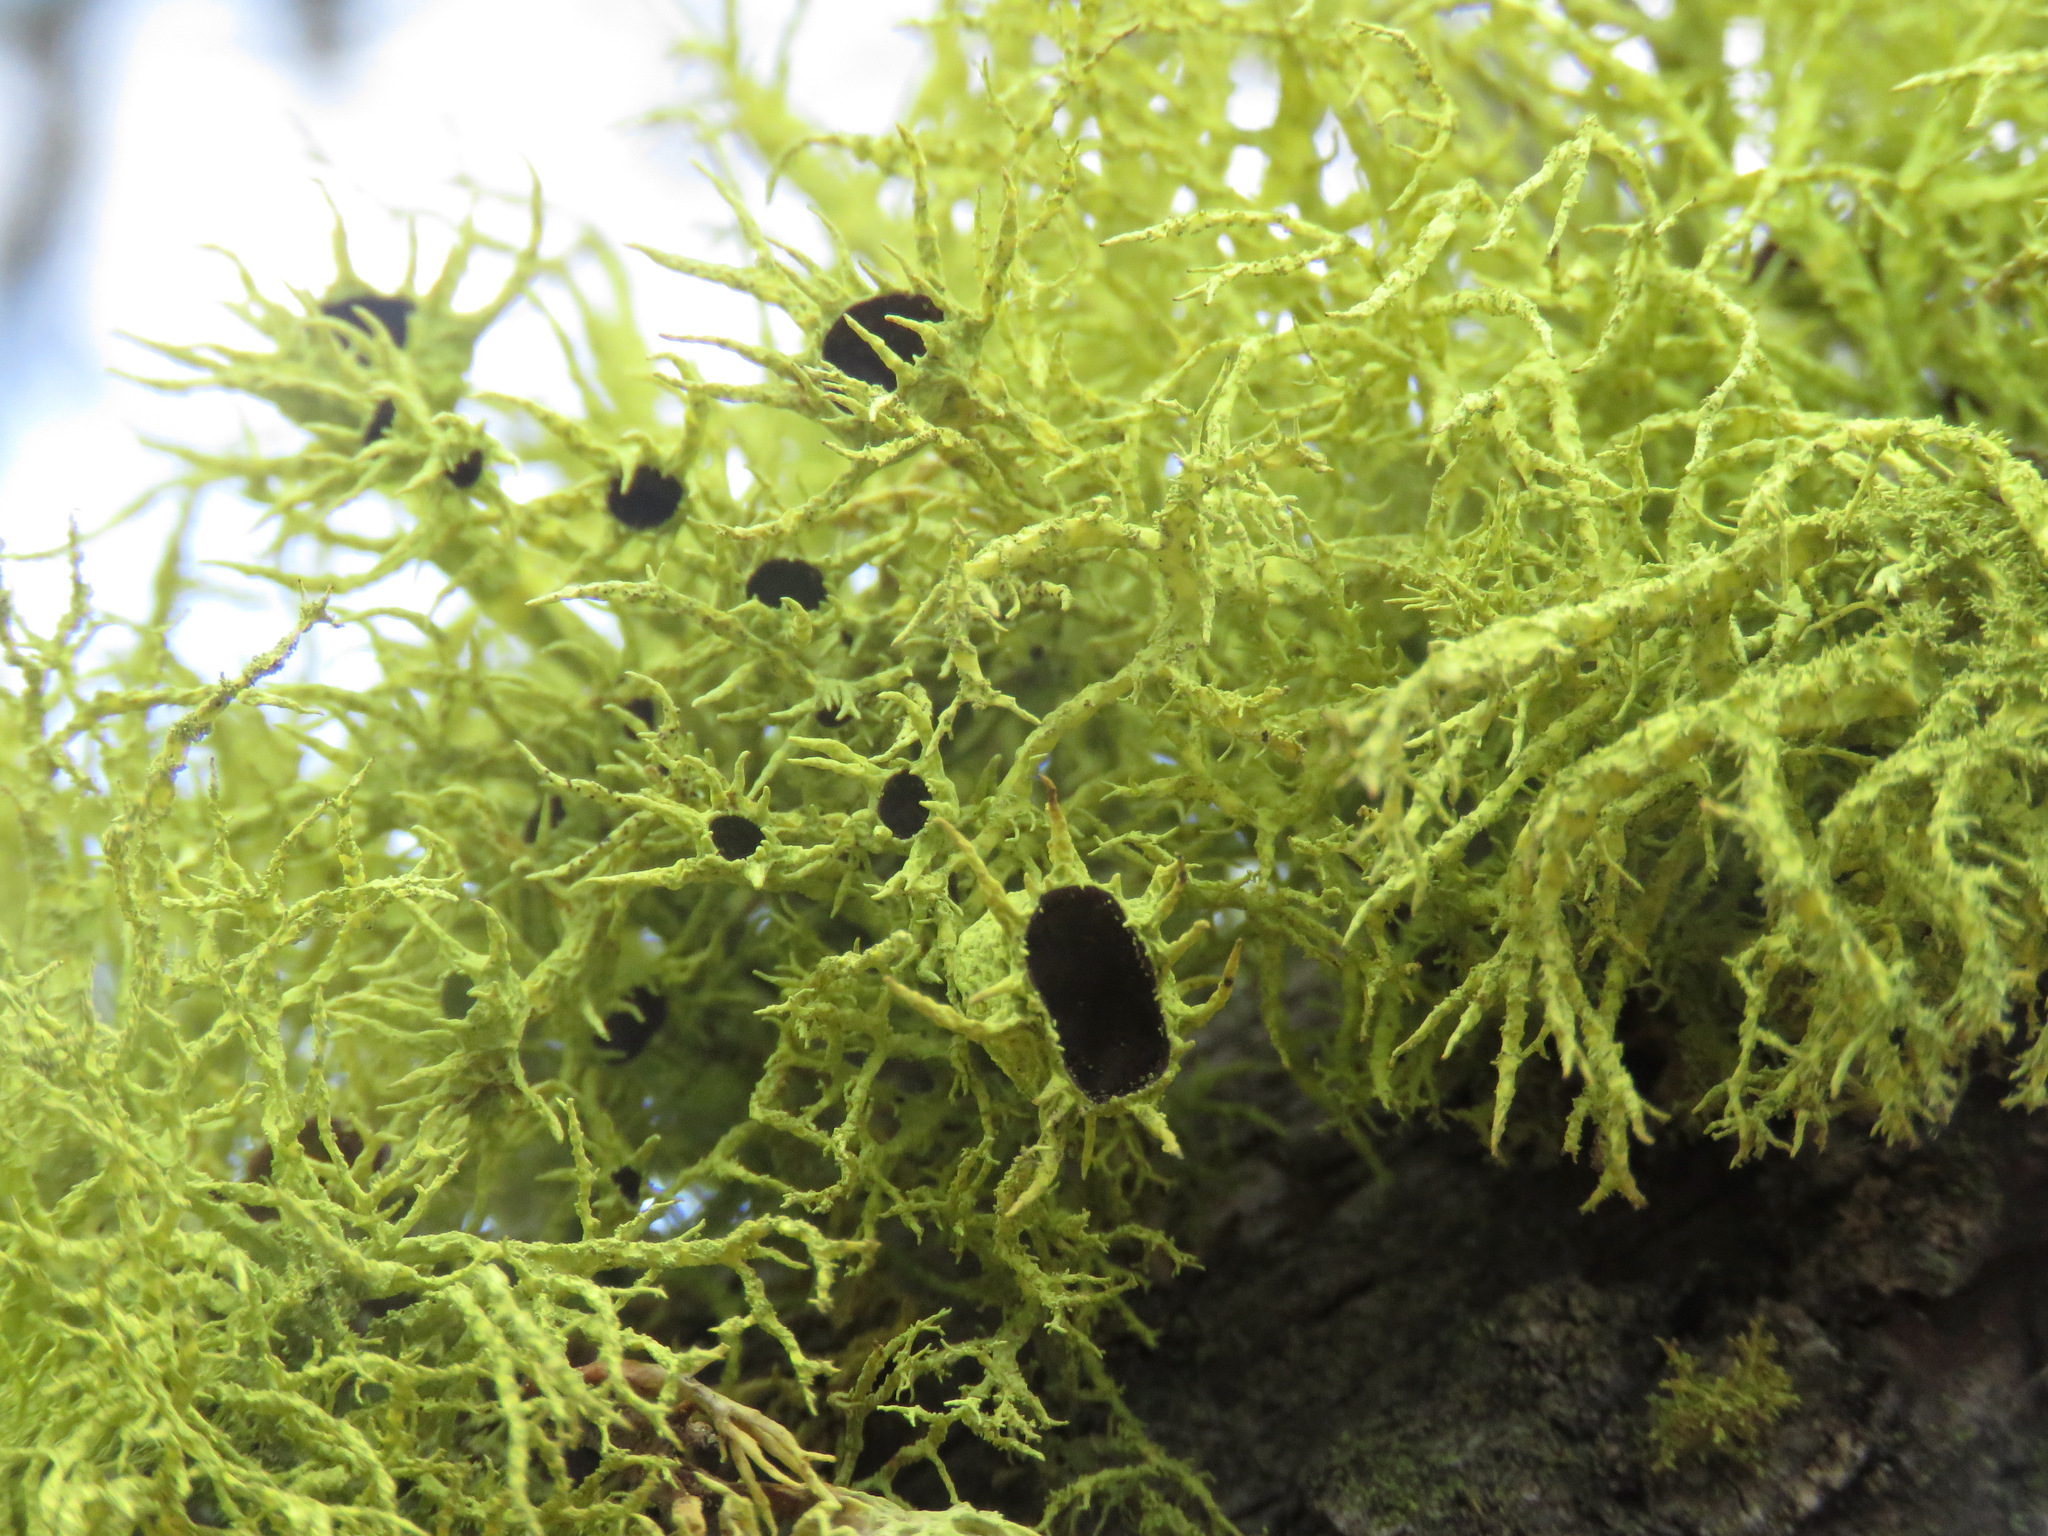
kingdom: Fungi
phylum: Ascomycota
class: Lecanoromycetes
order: Lecanorales
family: Parmeliaceae
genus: Letharia
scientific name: Letharia columbiana
